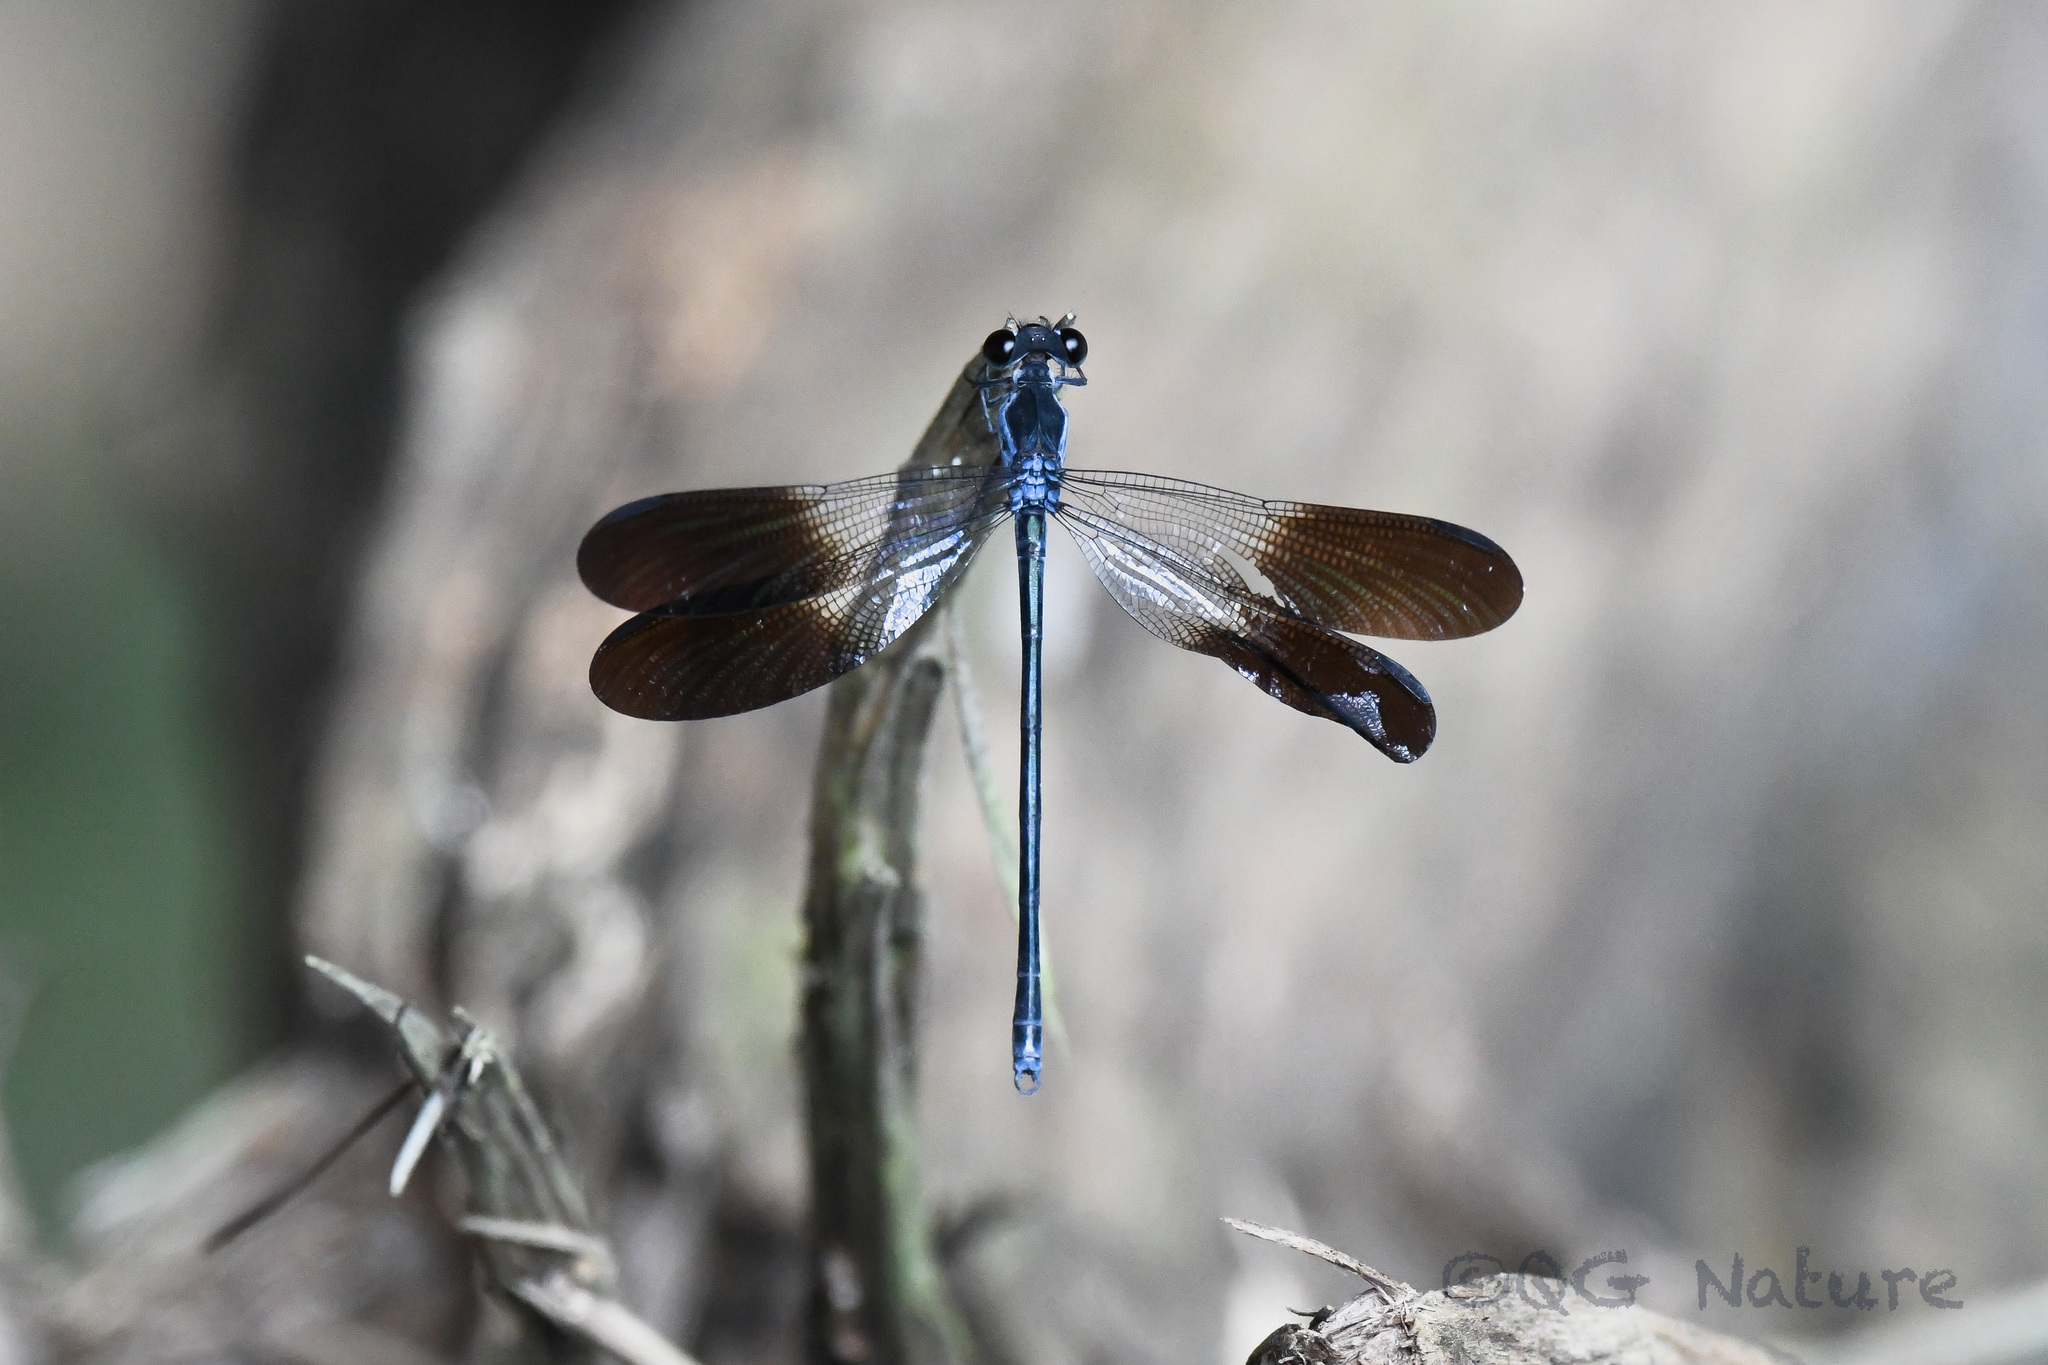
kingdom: Animalia
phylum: Arthropoda
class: Insecta
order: Odonata
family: Euphaeidae
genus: Bayadera
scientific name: Bayadera melanopteryx
